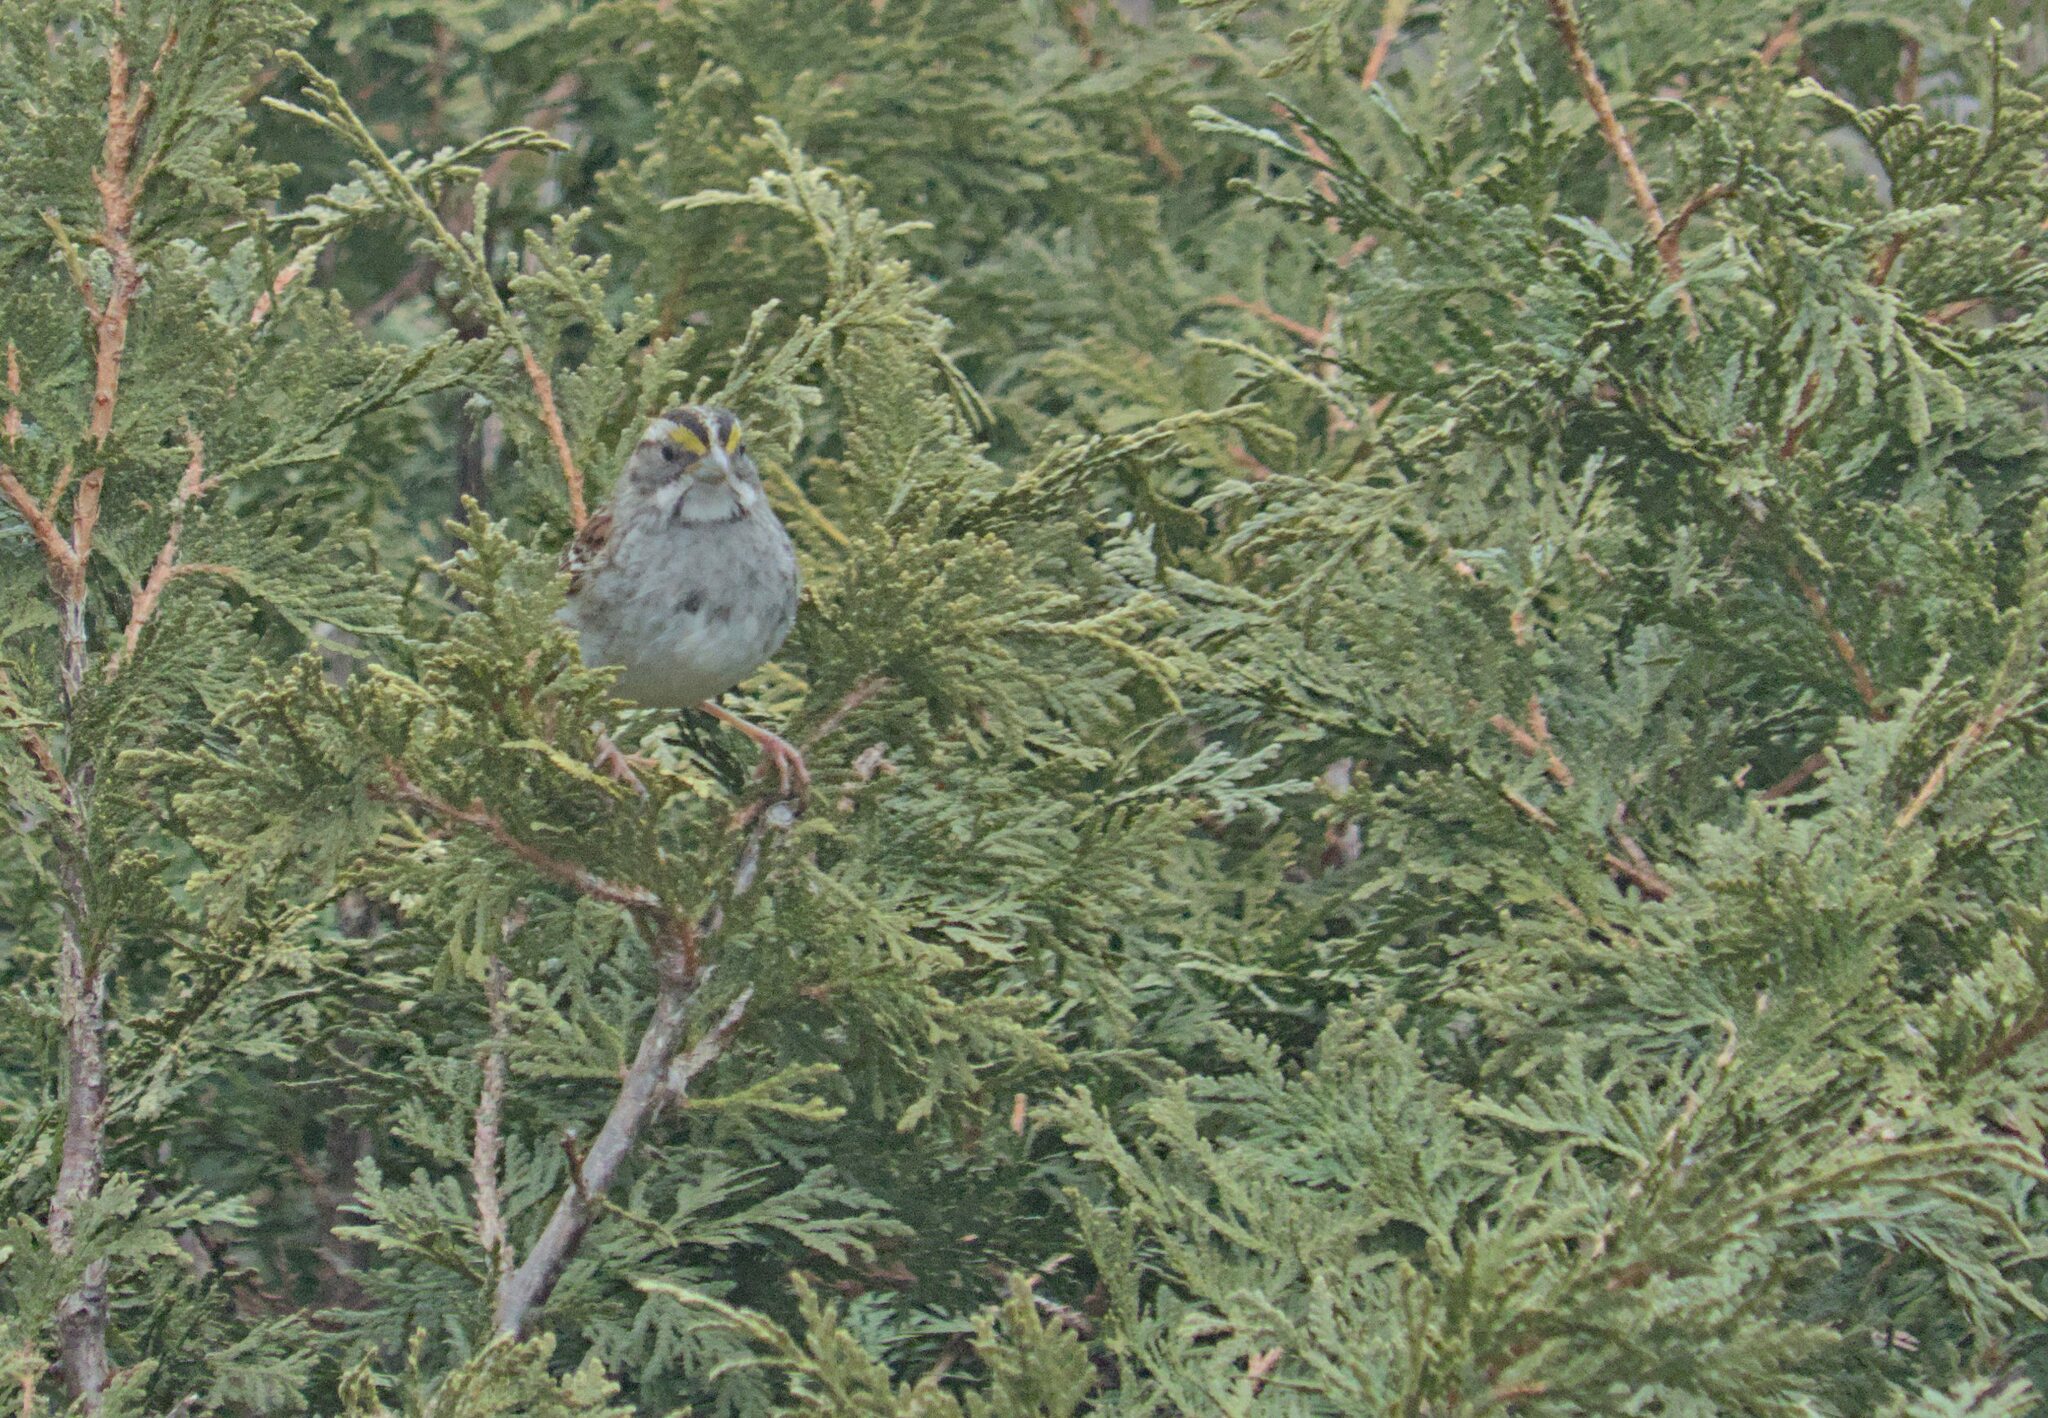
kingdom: Animalia
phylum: Chordata
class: Aves
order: Passeriformes
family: Passerellidae
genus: Zonotrichia
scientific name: Zonotrichia albicollis
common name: White-throated sparrow
